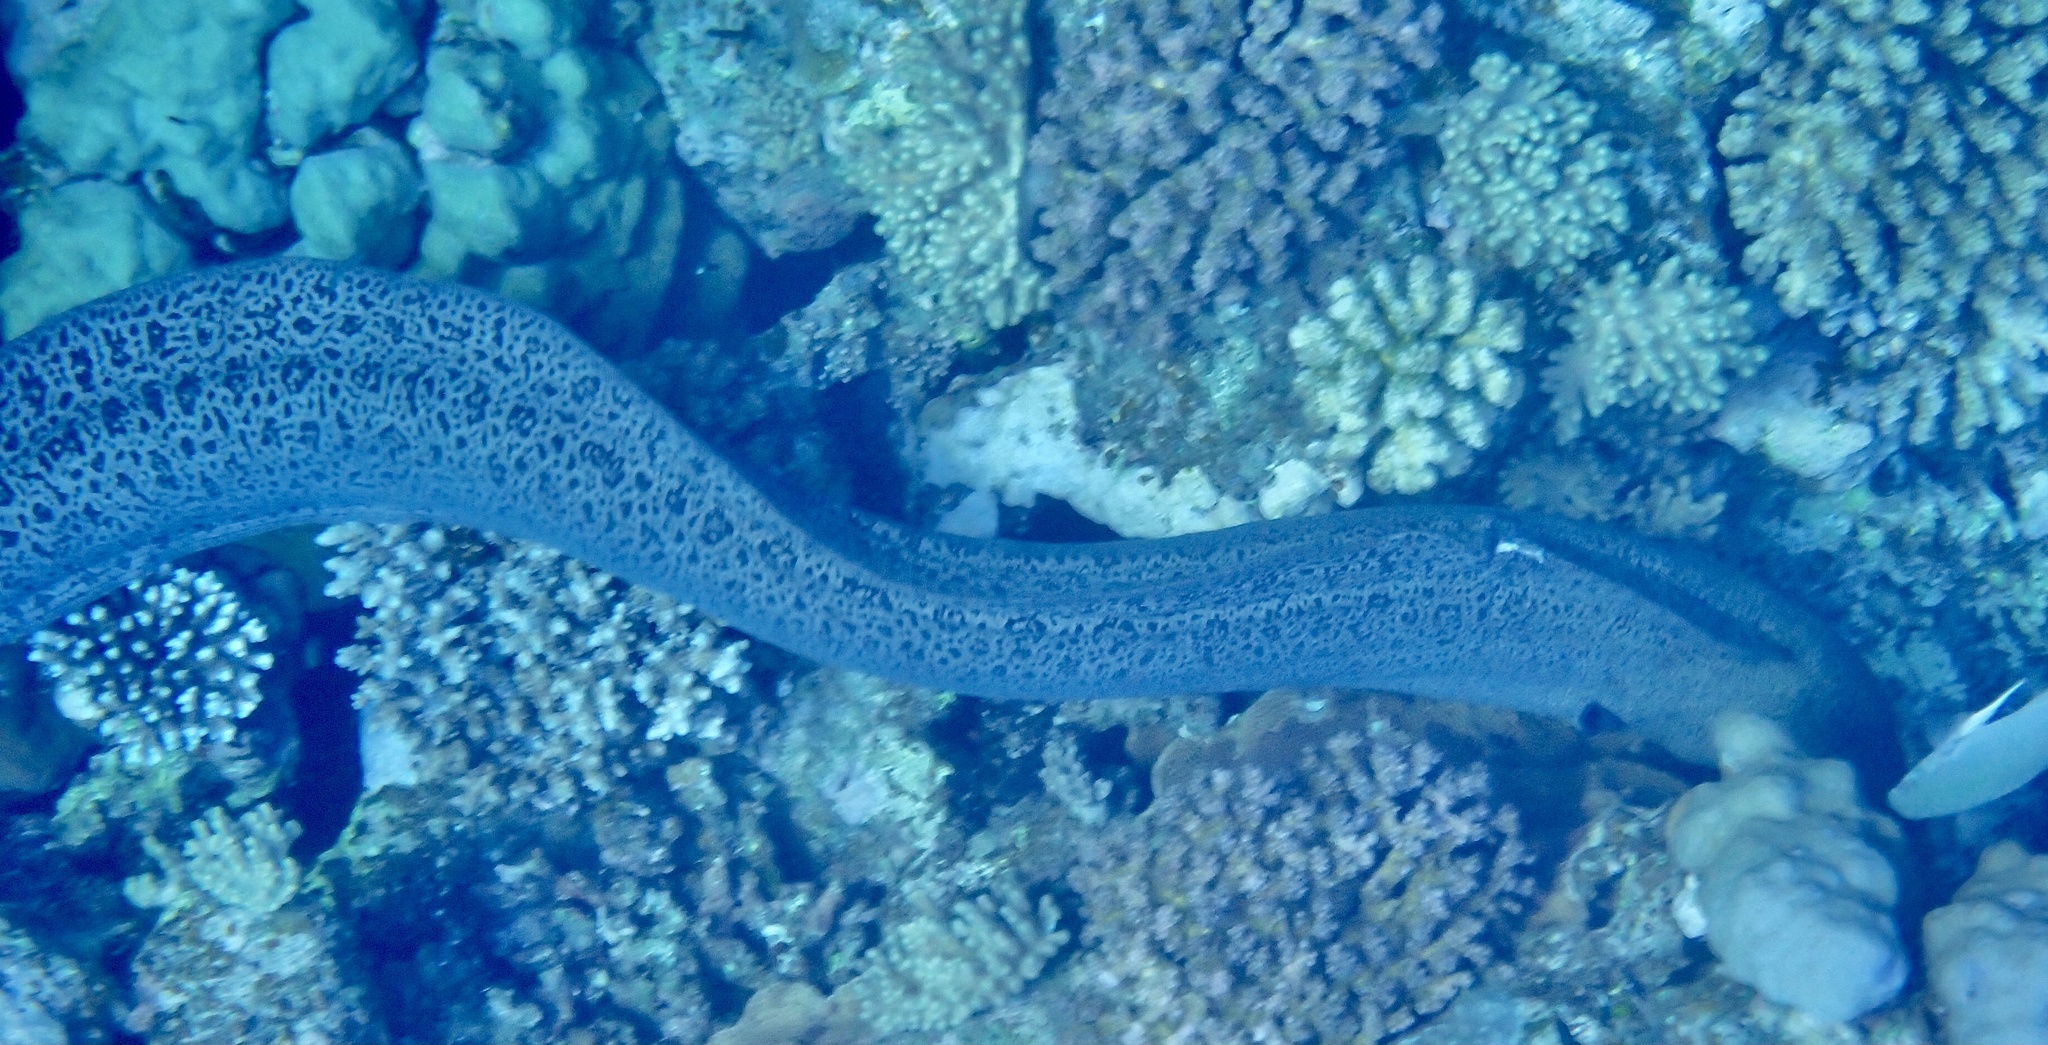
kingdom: Animalia
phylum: Chordata
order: Anguilliformes
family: Muraenidae
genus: Gymnothorax
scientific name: Gymnothorax javanicus
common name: Giant moray
